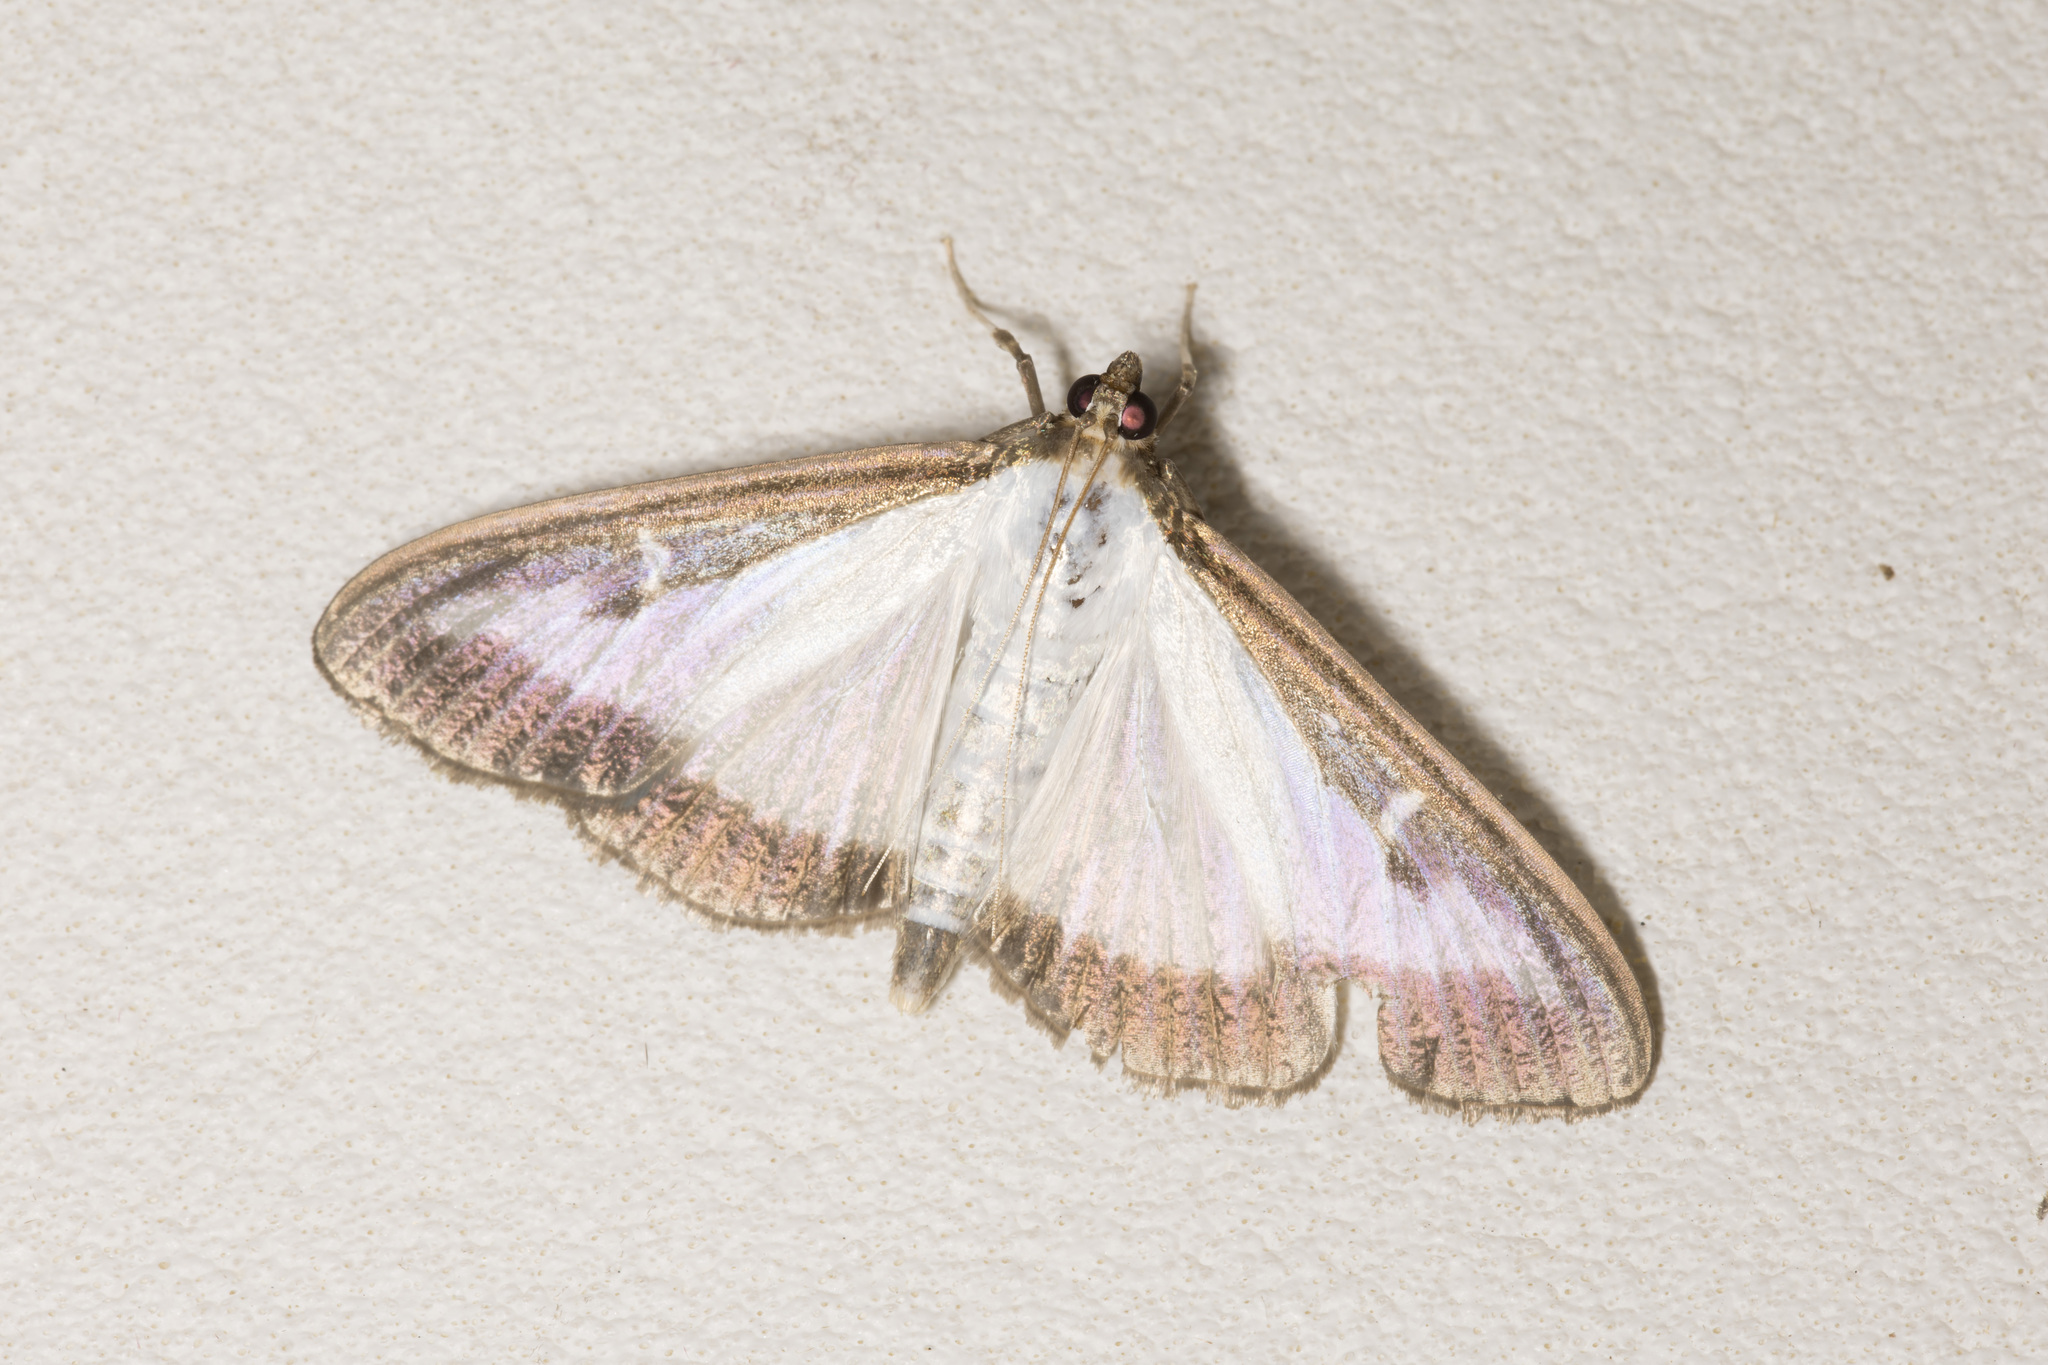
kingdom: Animalia
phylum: Arthropoda
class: Insecta
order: Lepidoptera
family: Crambidae
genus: Cydalima
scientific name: Cydalima perspectalis
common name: Box tree moth
